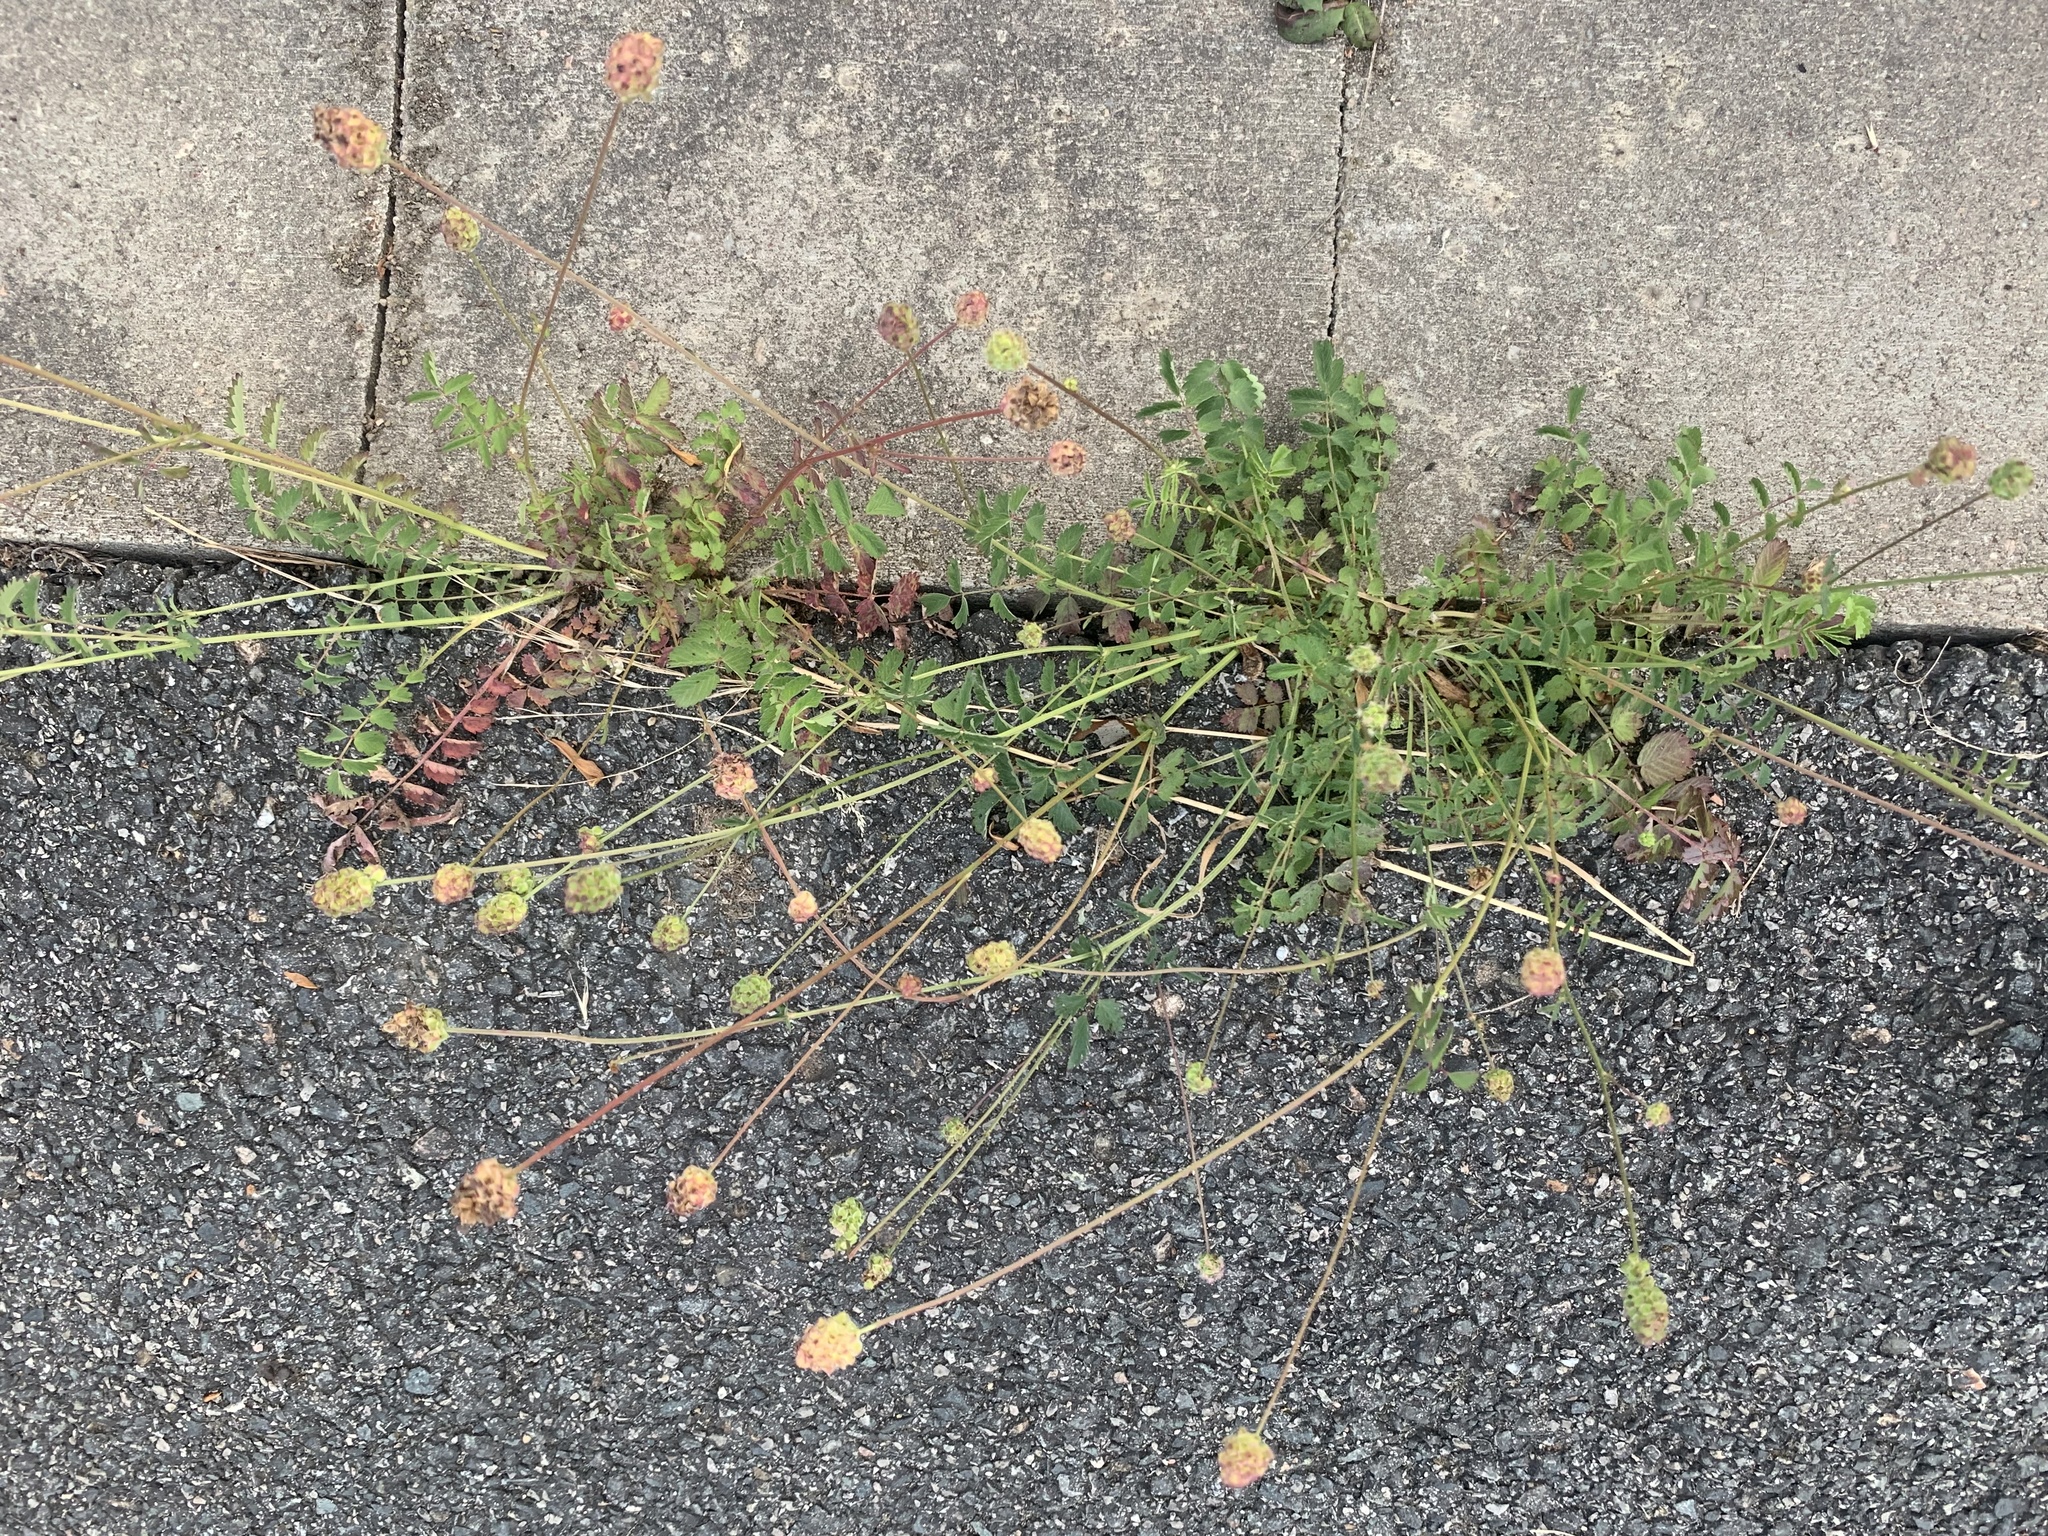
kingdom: Plantae
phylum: Tracheophyta
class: Magnoliopsida
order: Rosales
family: Rosaceae
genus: Poterium
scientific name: Poterium sanguisorba
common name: Salad burnet
